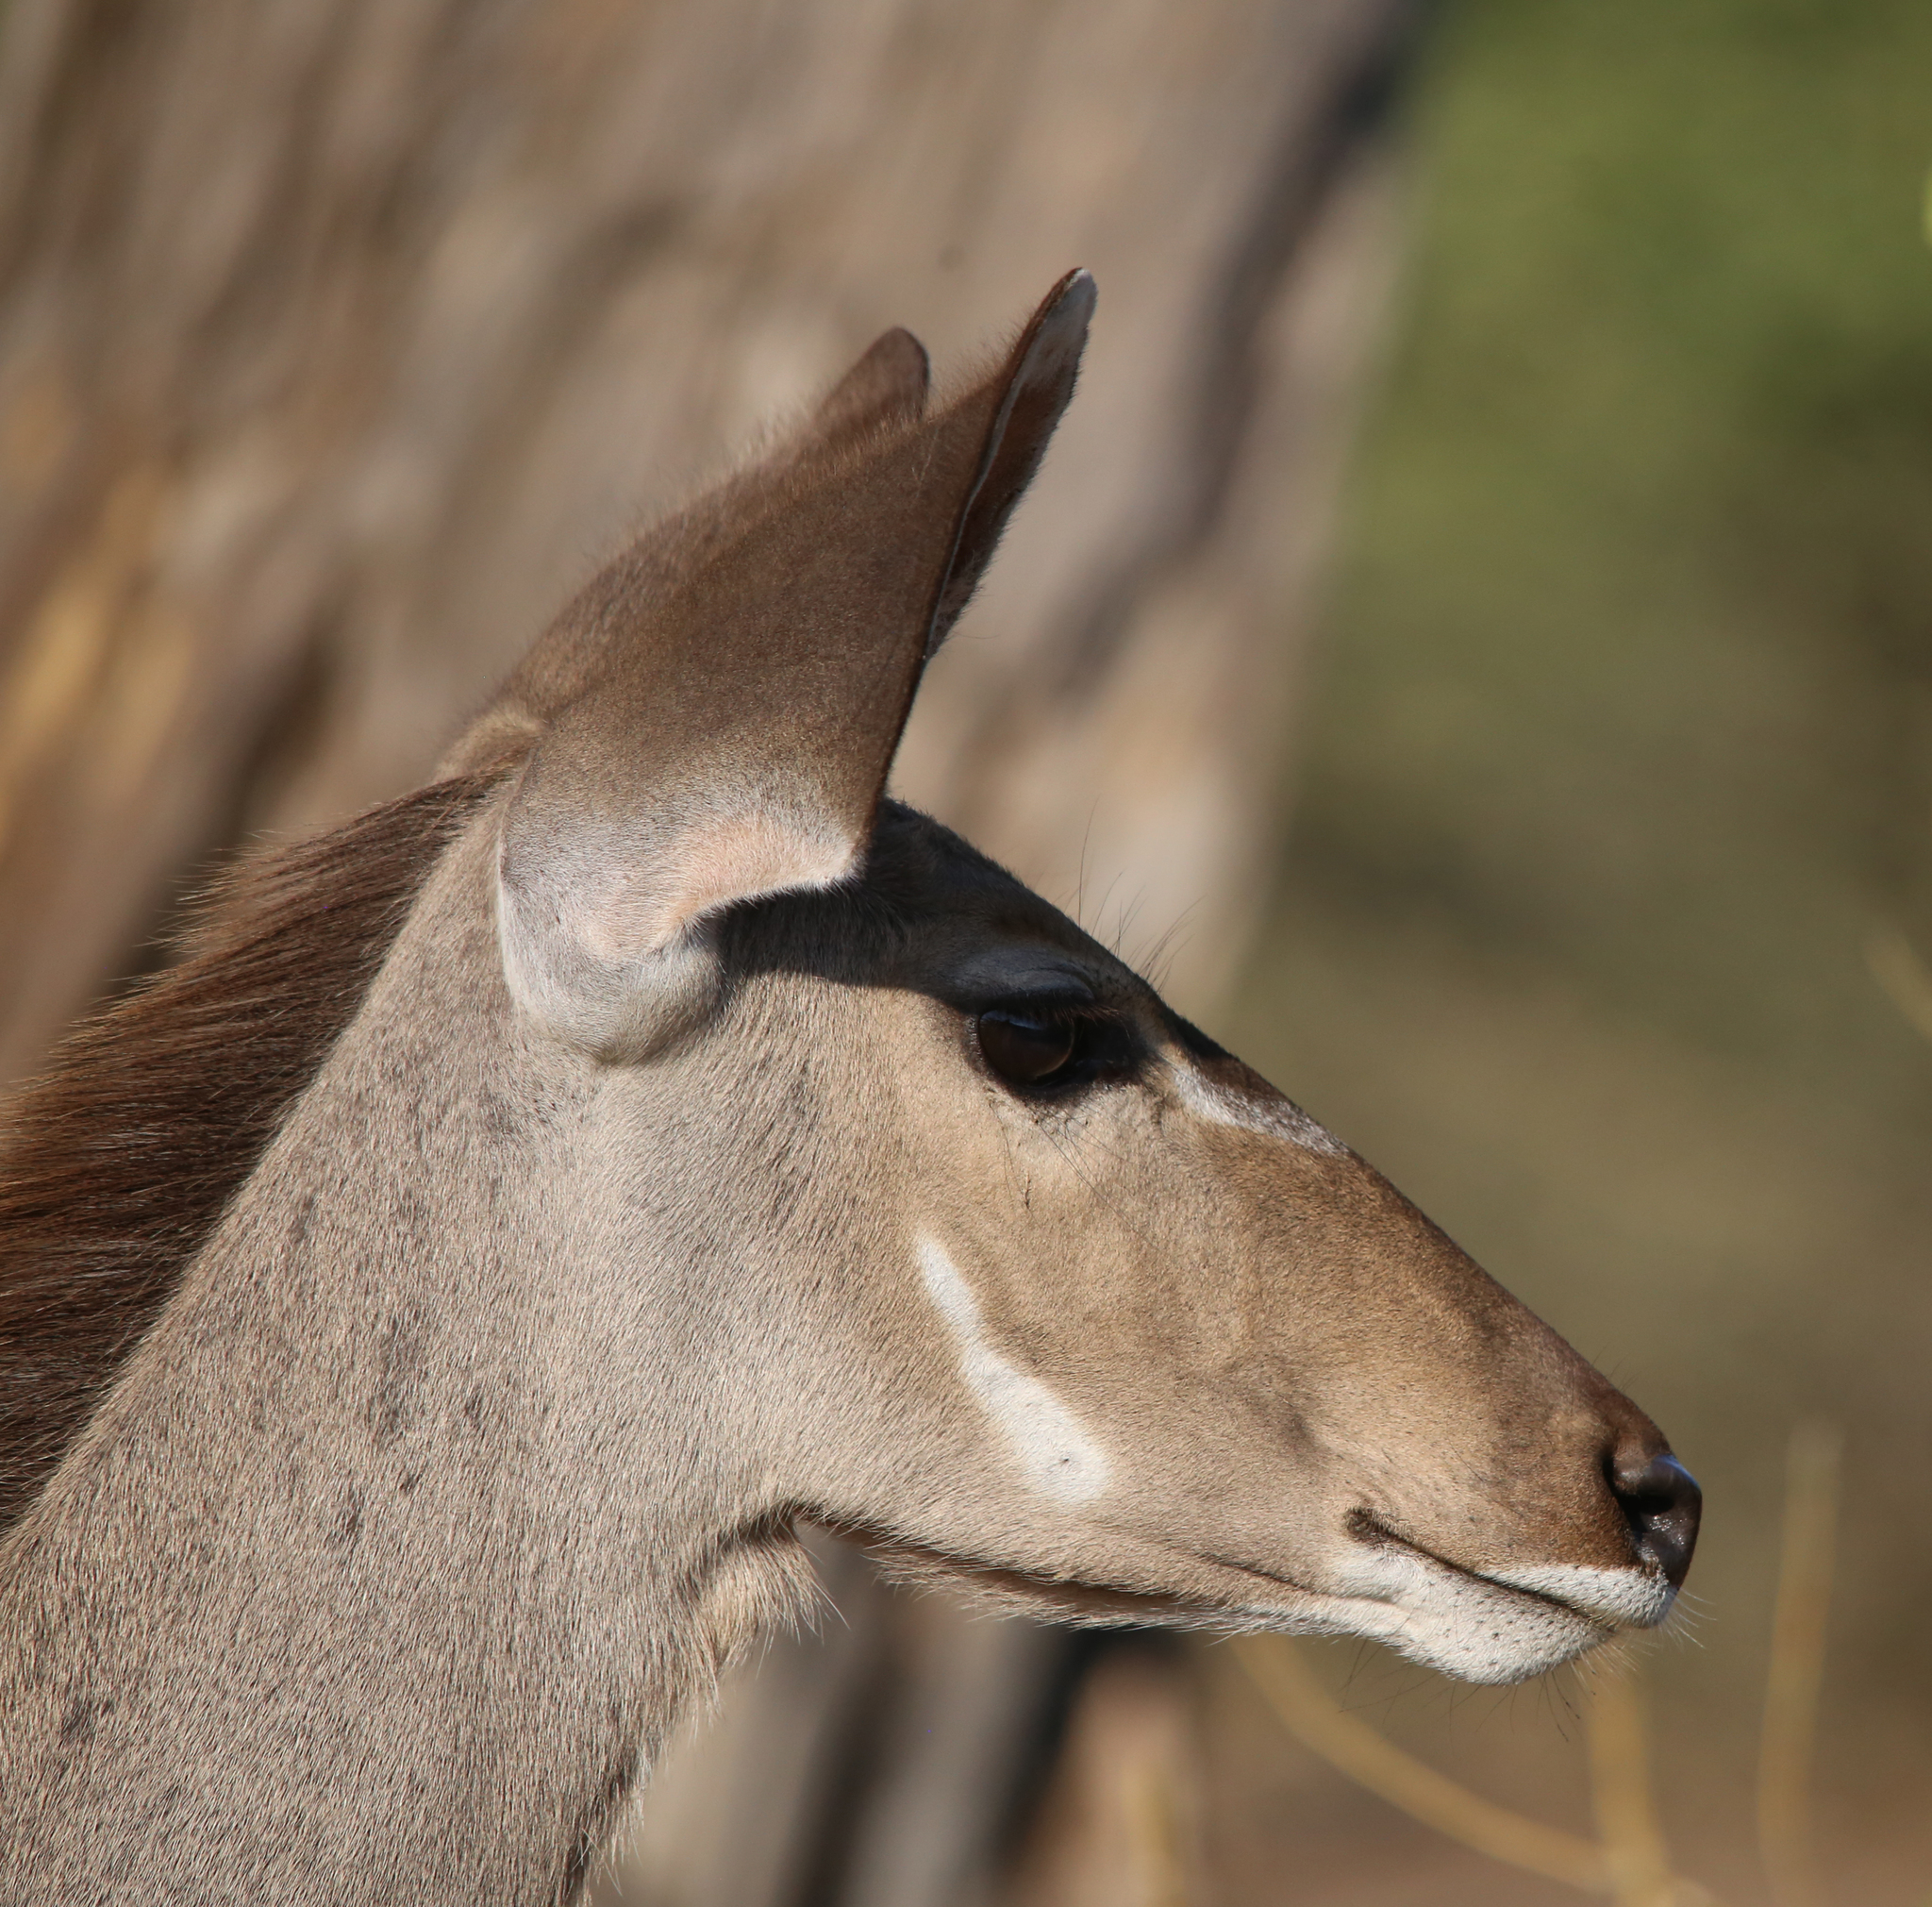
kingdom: Animalia
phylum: Chordata
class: Mammalia
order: Artiodactyla
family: Bovidae
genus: Tragelaphus
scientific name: Tragelaphus strepsiceros
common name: Greater kudu
